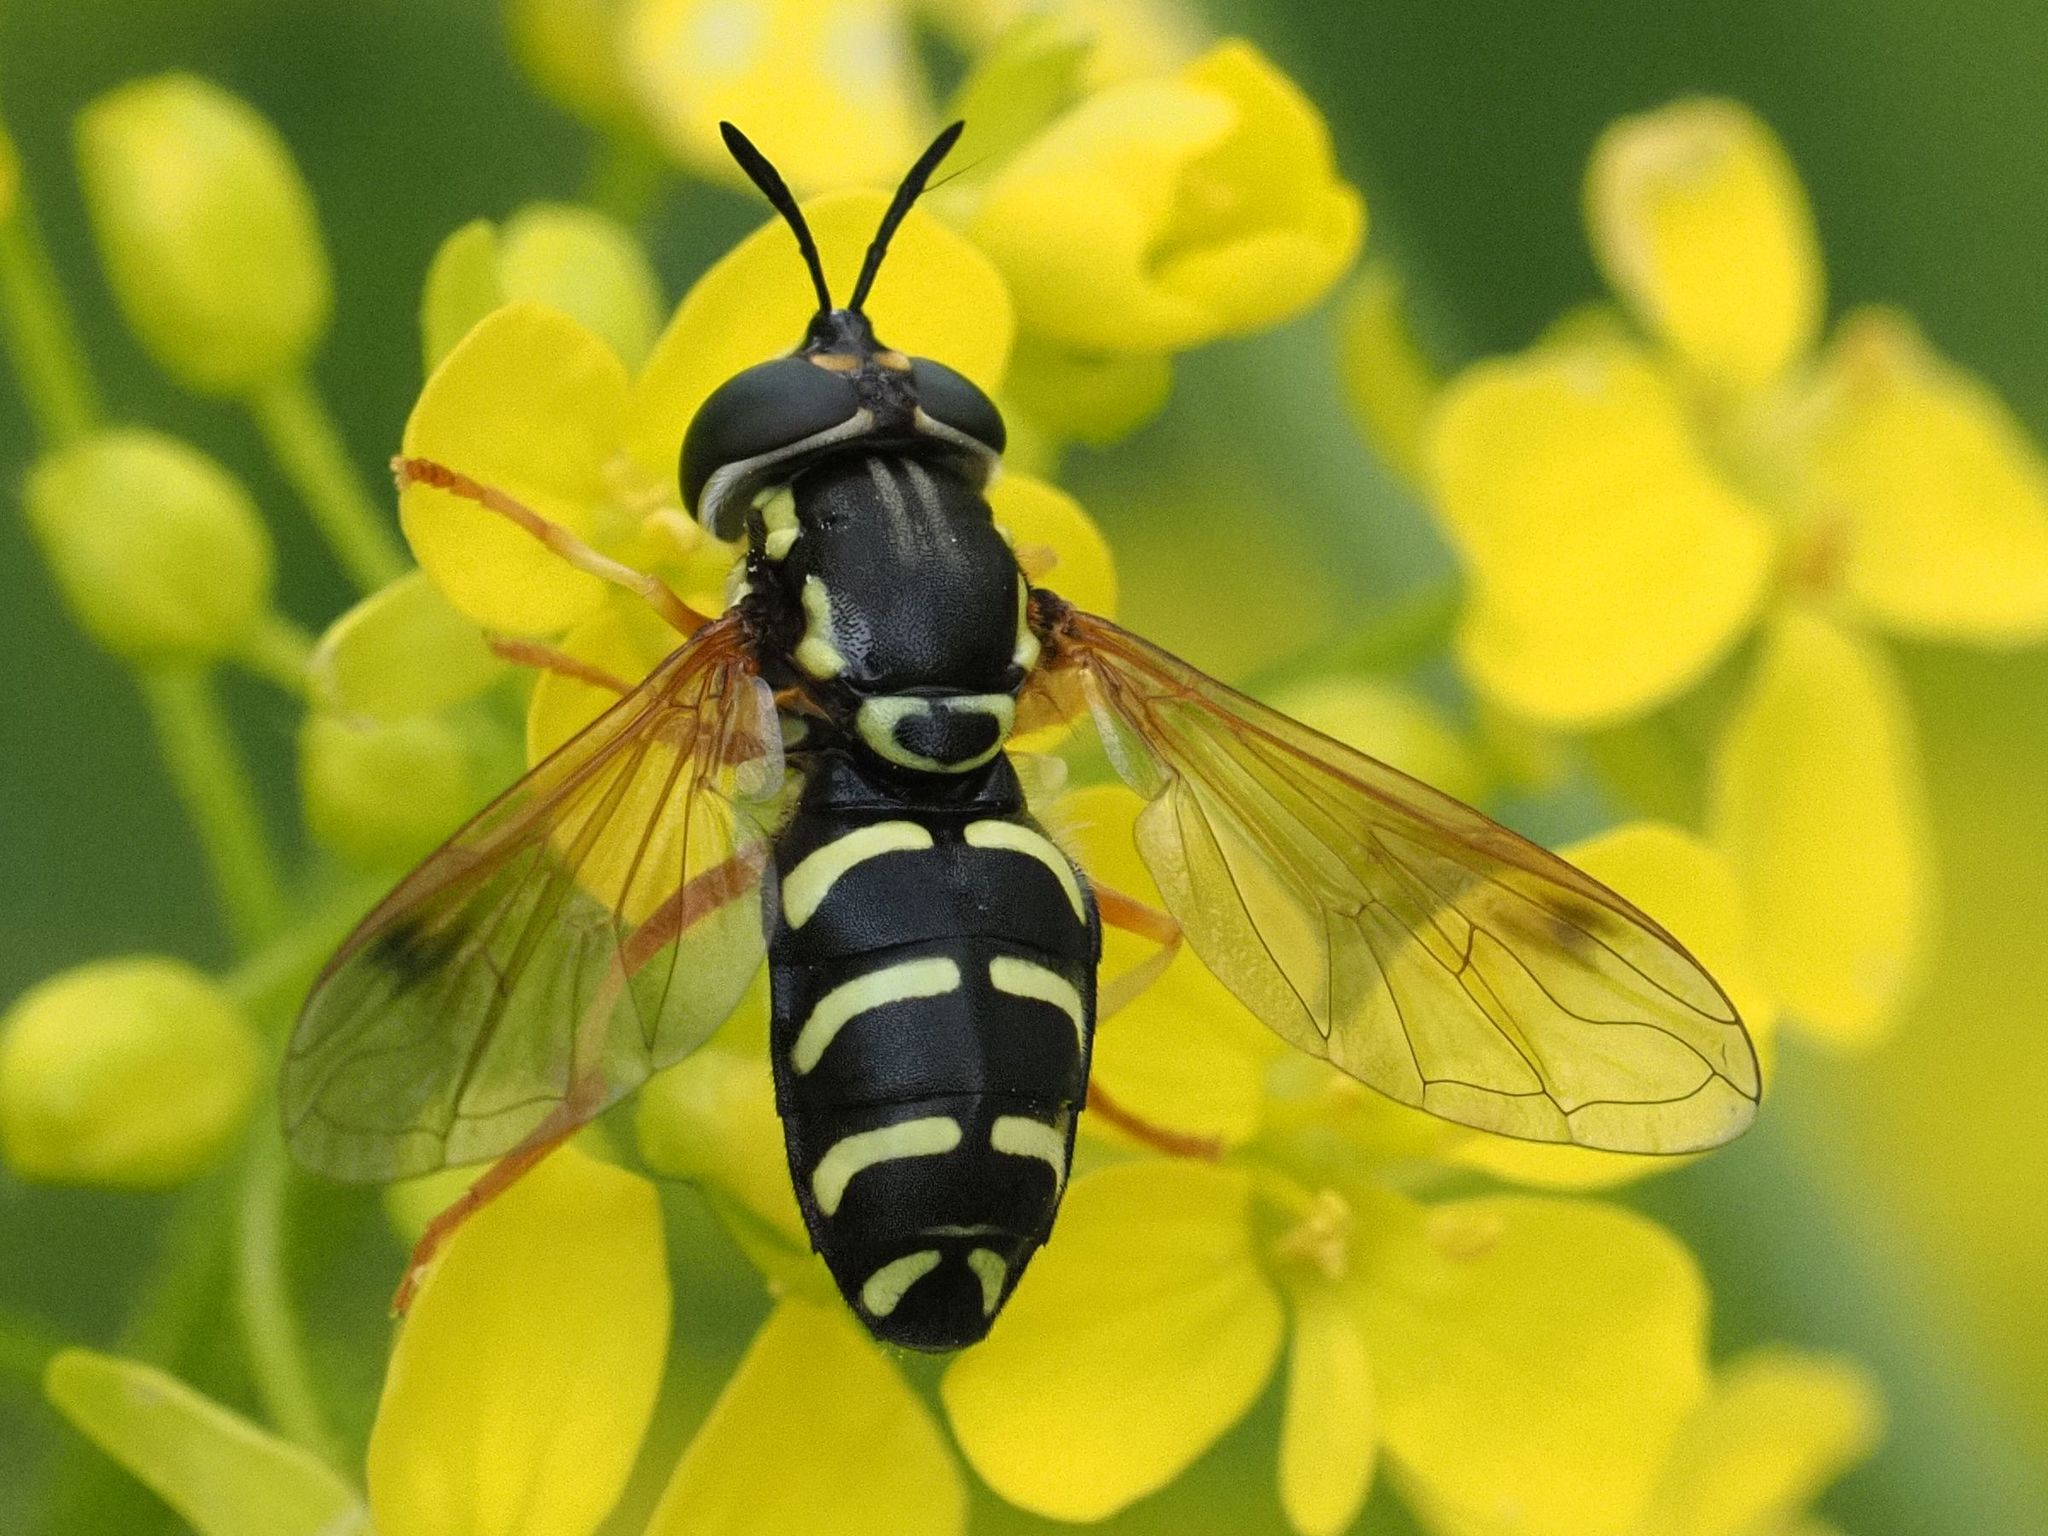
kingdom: Animalia
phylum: Arthropoda
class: Insecta
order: Diptera
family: Syrphidae
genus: Chrysotoxum
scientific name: Chrysotoxum festivum
